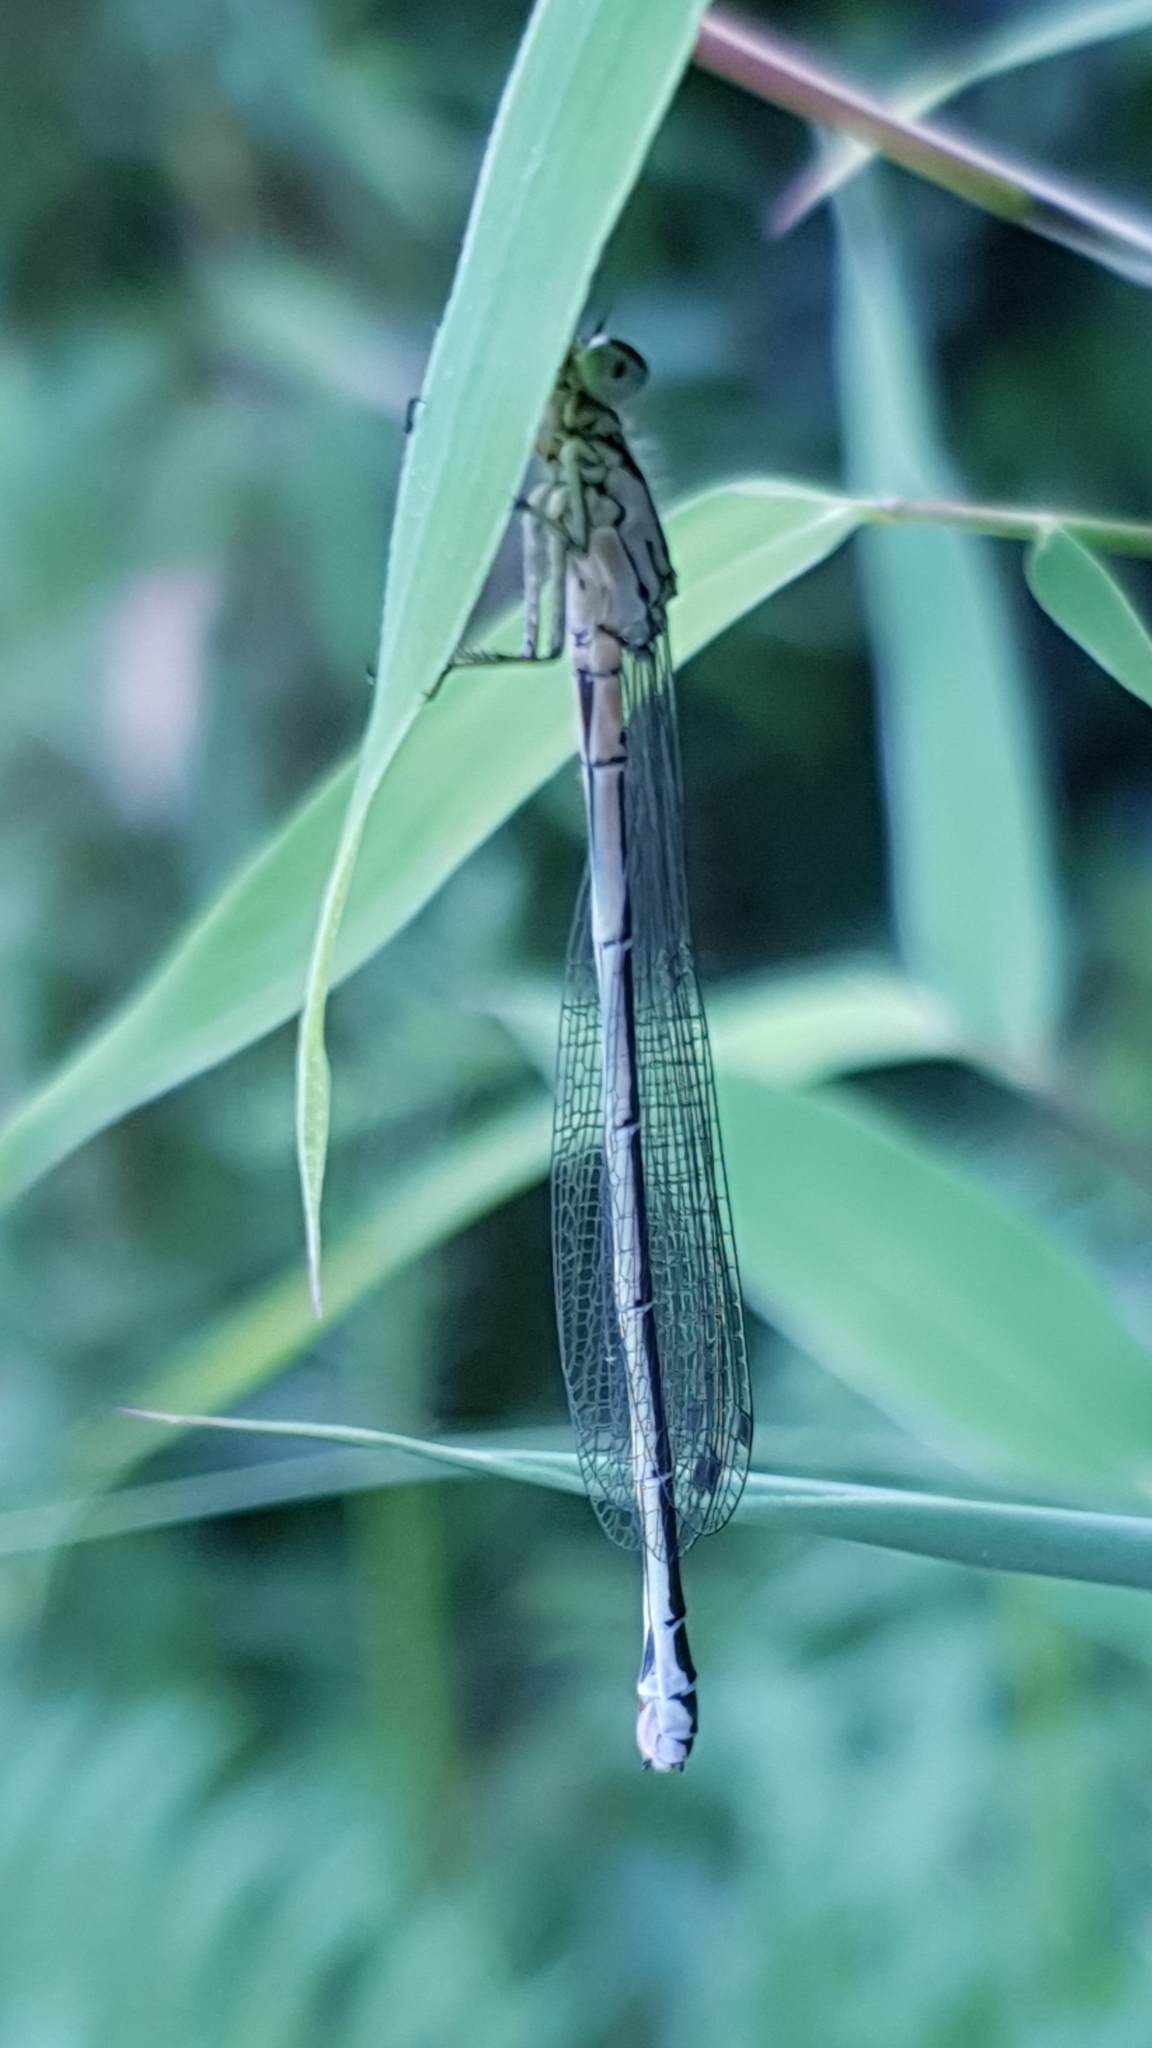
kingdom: Animalia
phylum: Arthropoda
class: Insecta
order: Odonata
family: Coenagrionidae
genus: Coenagrion
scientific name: Coenagrion puella
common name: Azure damselfly
